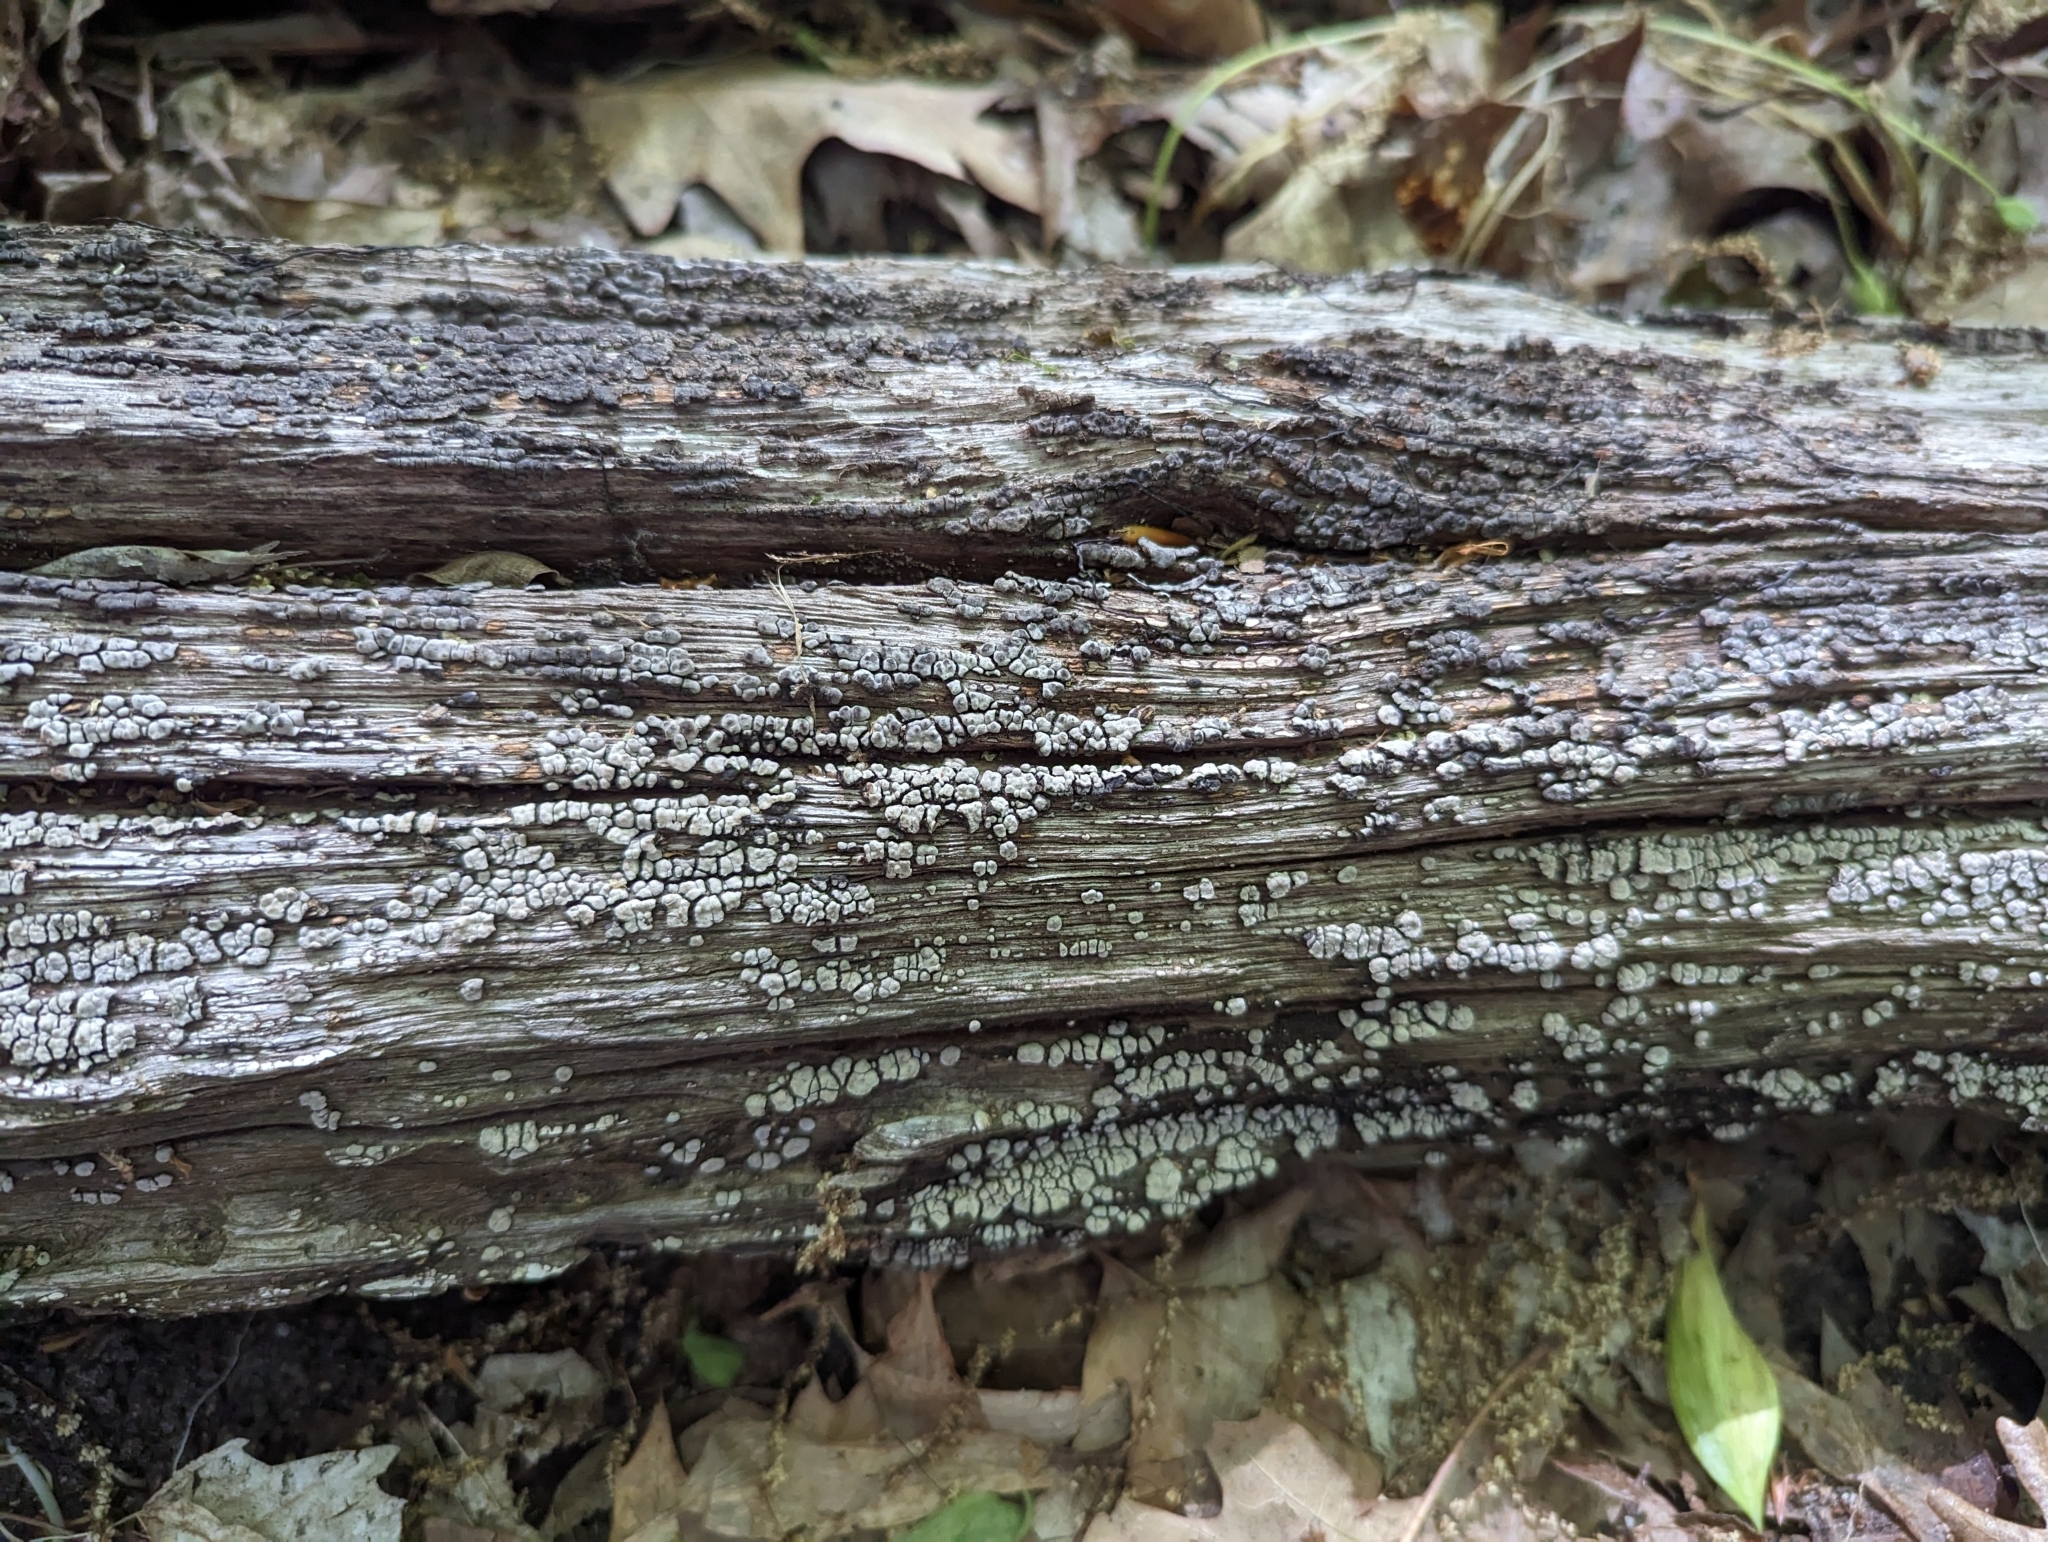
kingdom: Fungi
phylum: Basidiomycota
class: Agaricomycetes
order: Russulales
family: Stereaceae
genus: Xylobolus
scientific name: Xylobolus frustulatus
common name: Ceramic parchment
